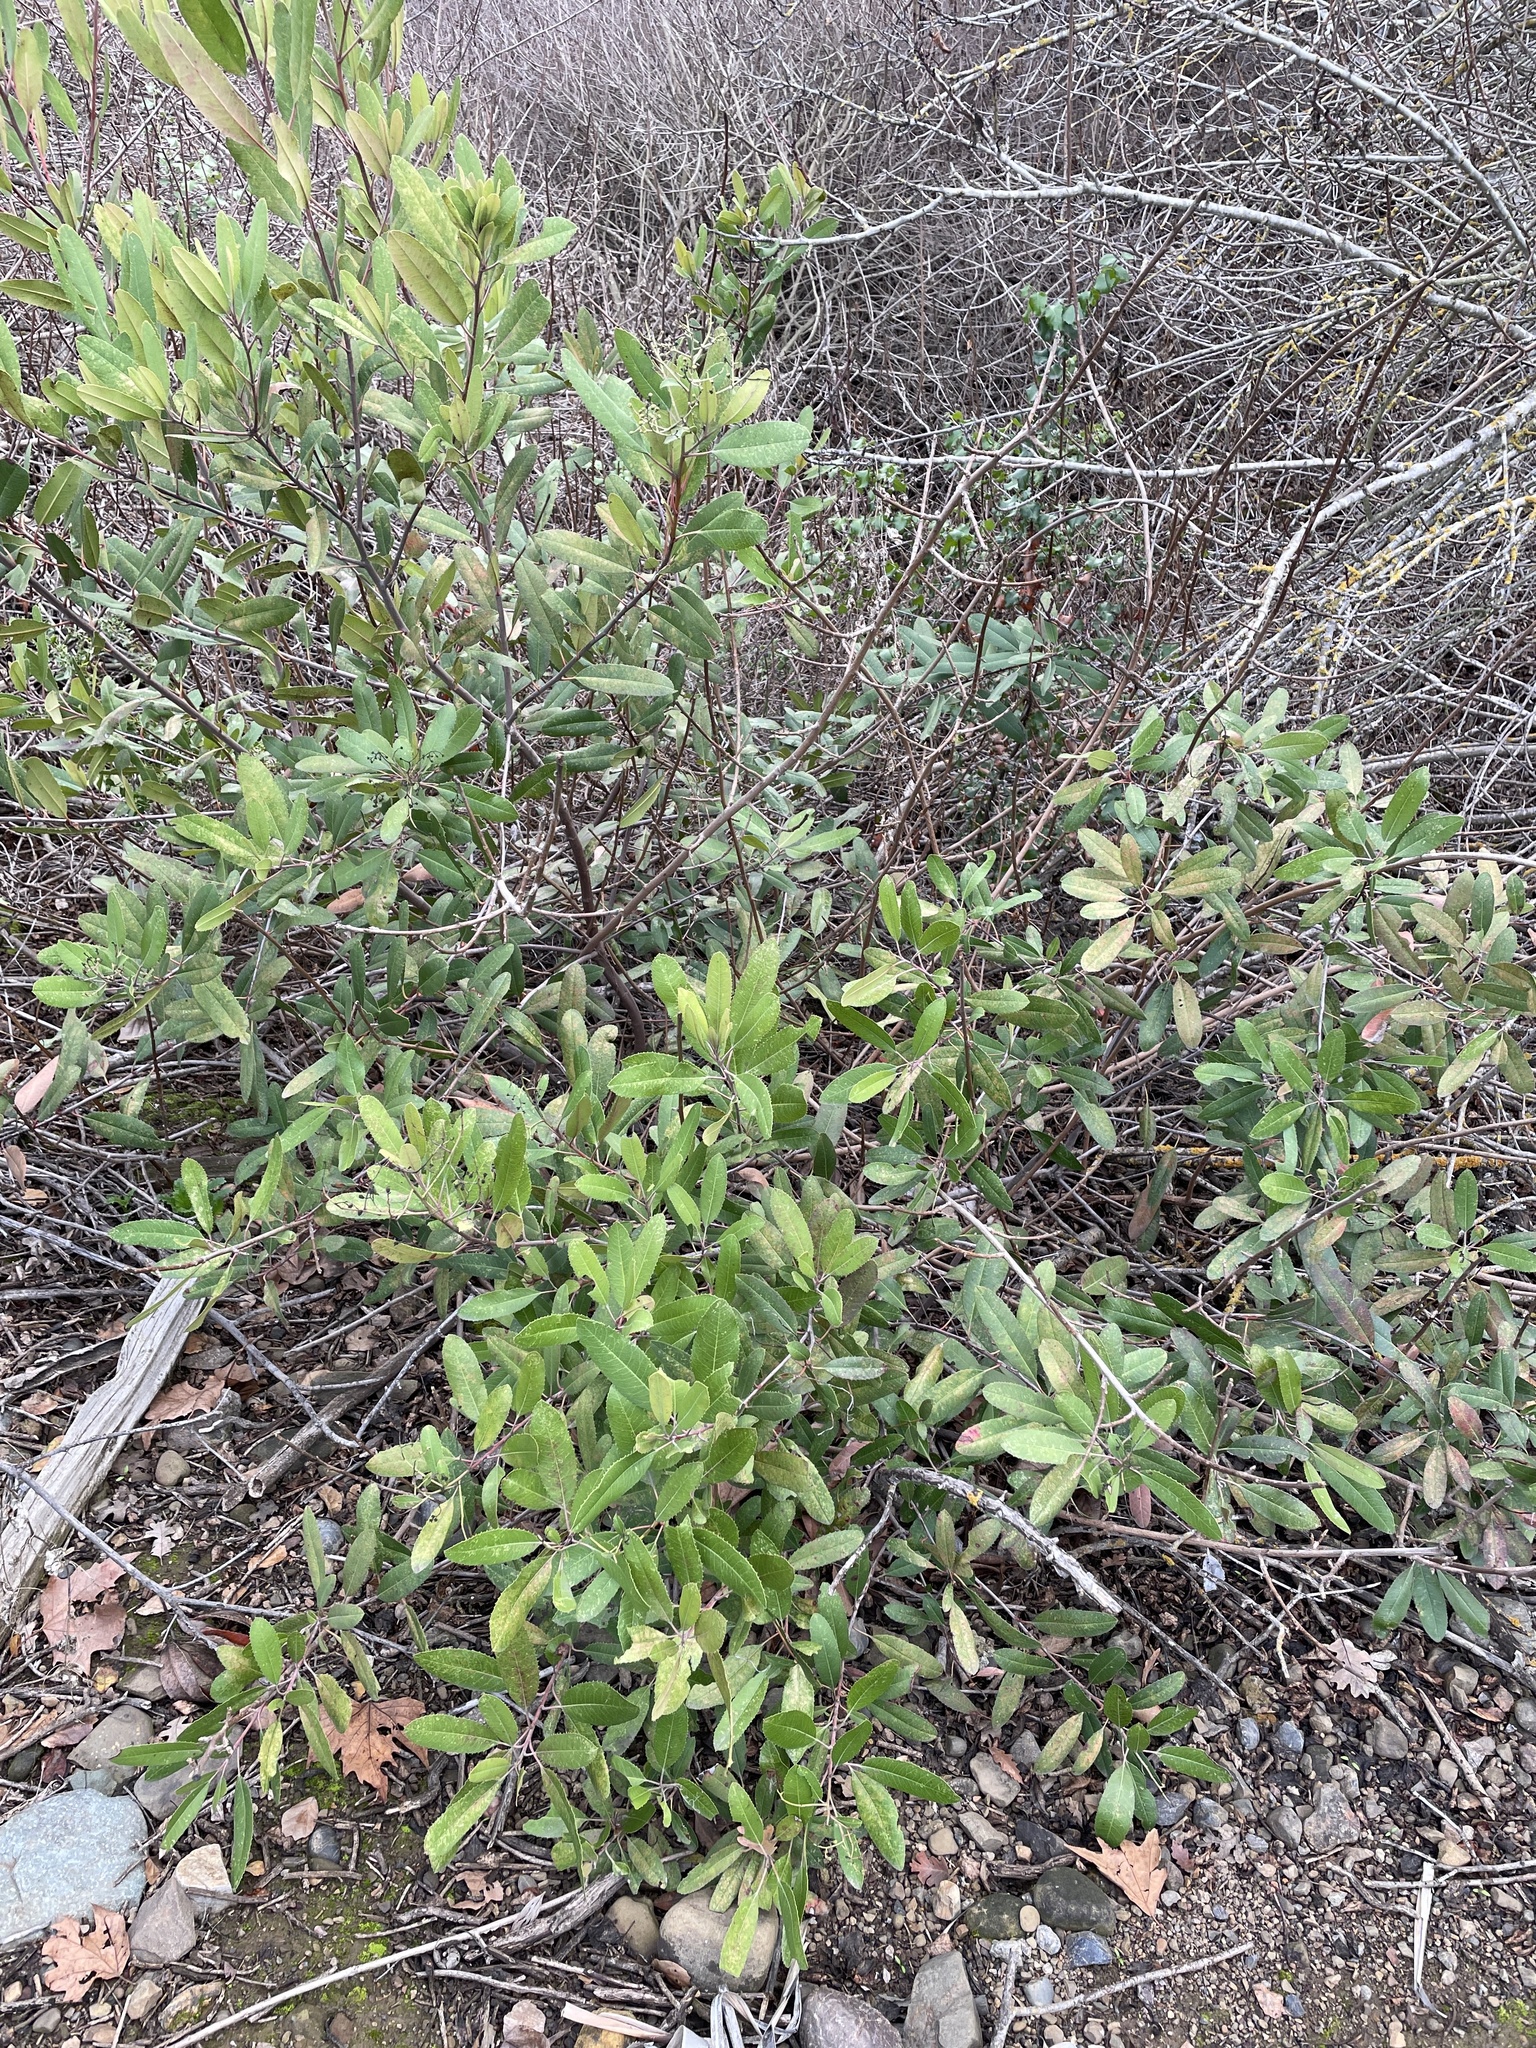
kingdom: Plantae
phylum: Tracheophyta
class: Magnoliopsida
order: Rosales
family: Rosaceae
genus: Heteromeles
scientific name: Heteromeles arbutifolia
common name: California-holly
